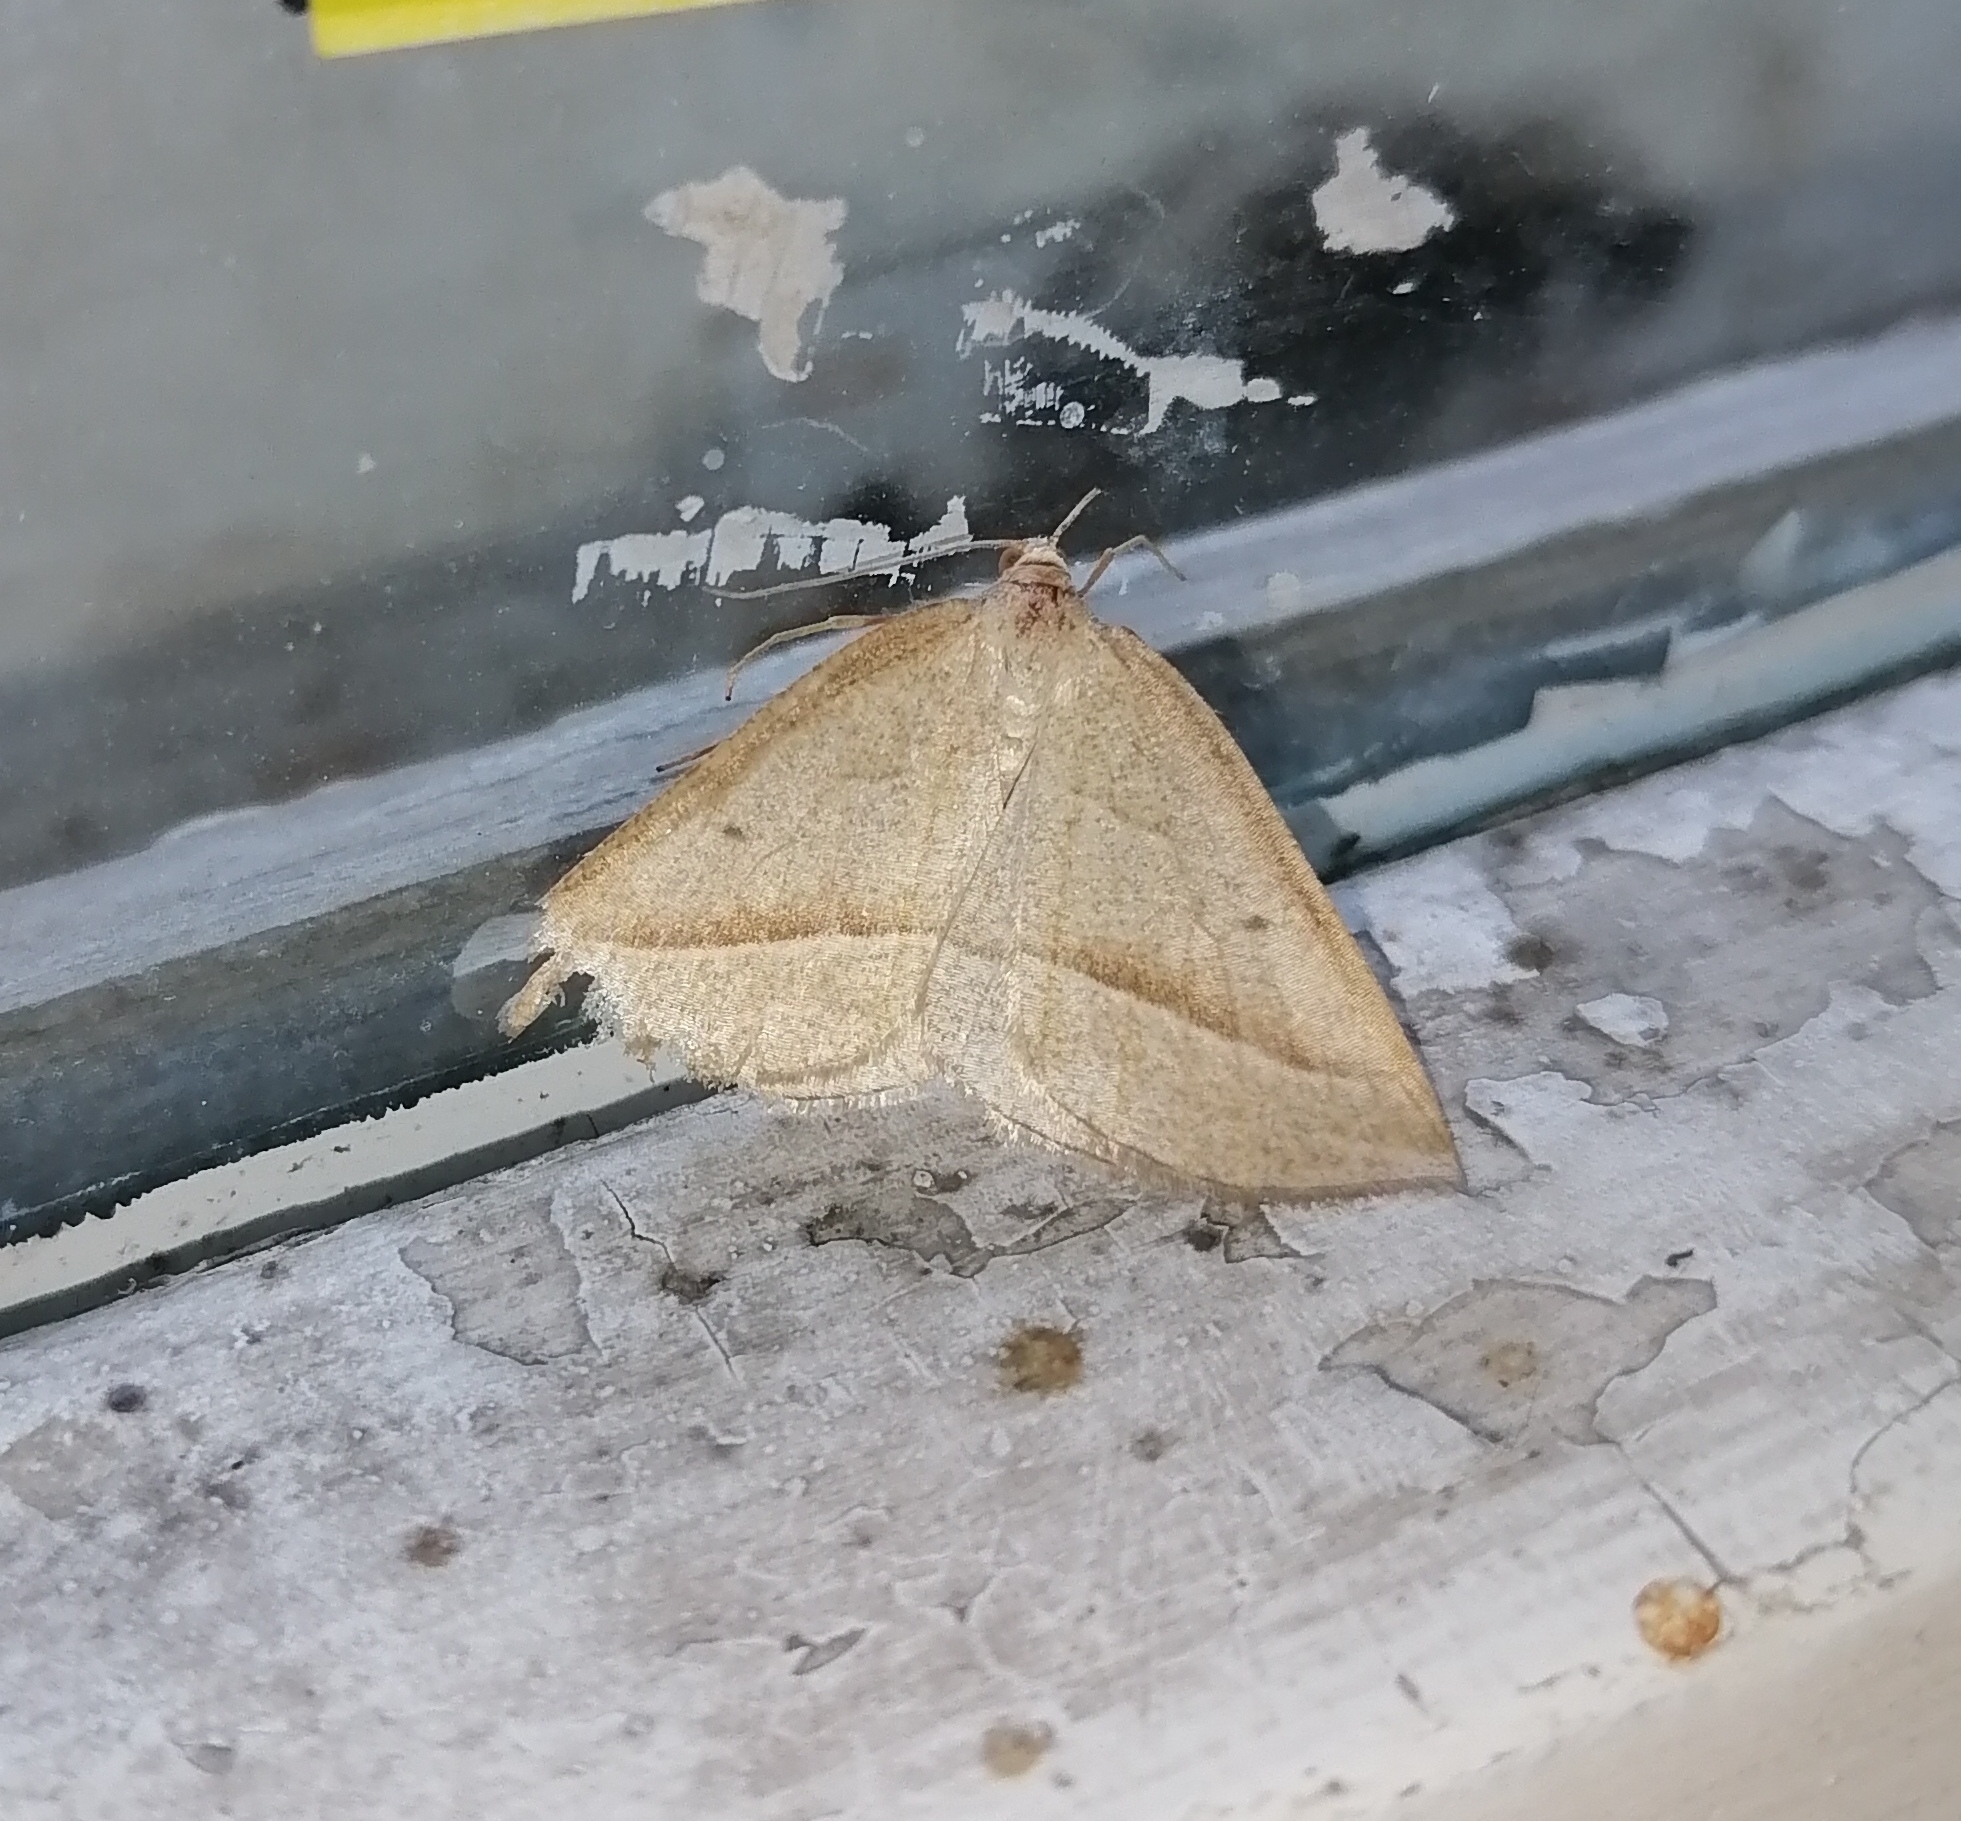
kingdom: Animalia
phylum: Arthropoda
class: Insecta
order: Lepidoptera
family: Pterophoridae
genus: Pterophorus
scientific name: Pterophorus Petrophora chlorosata
